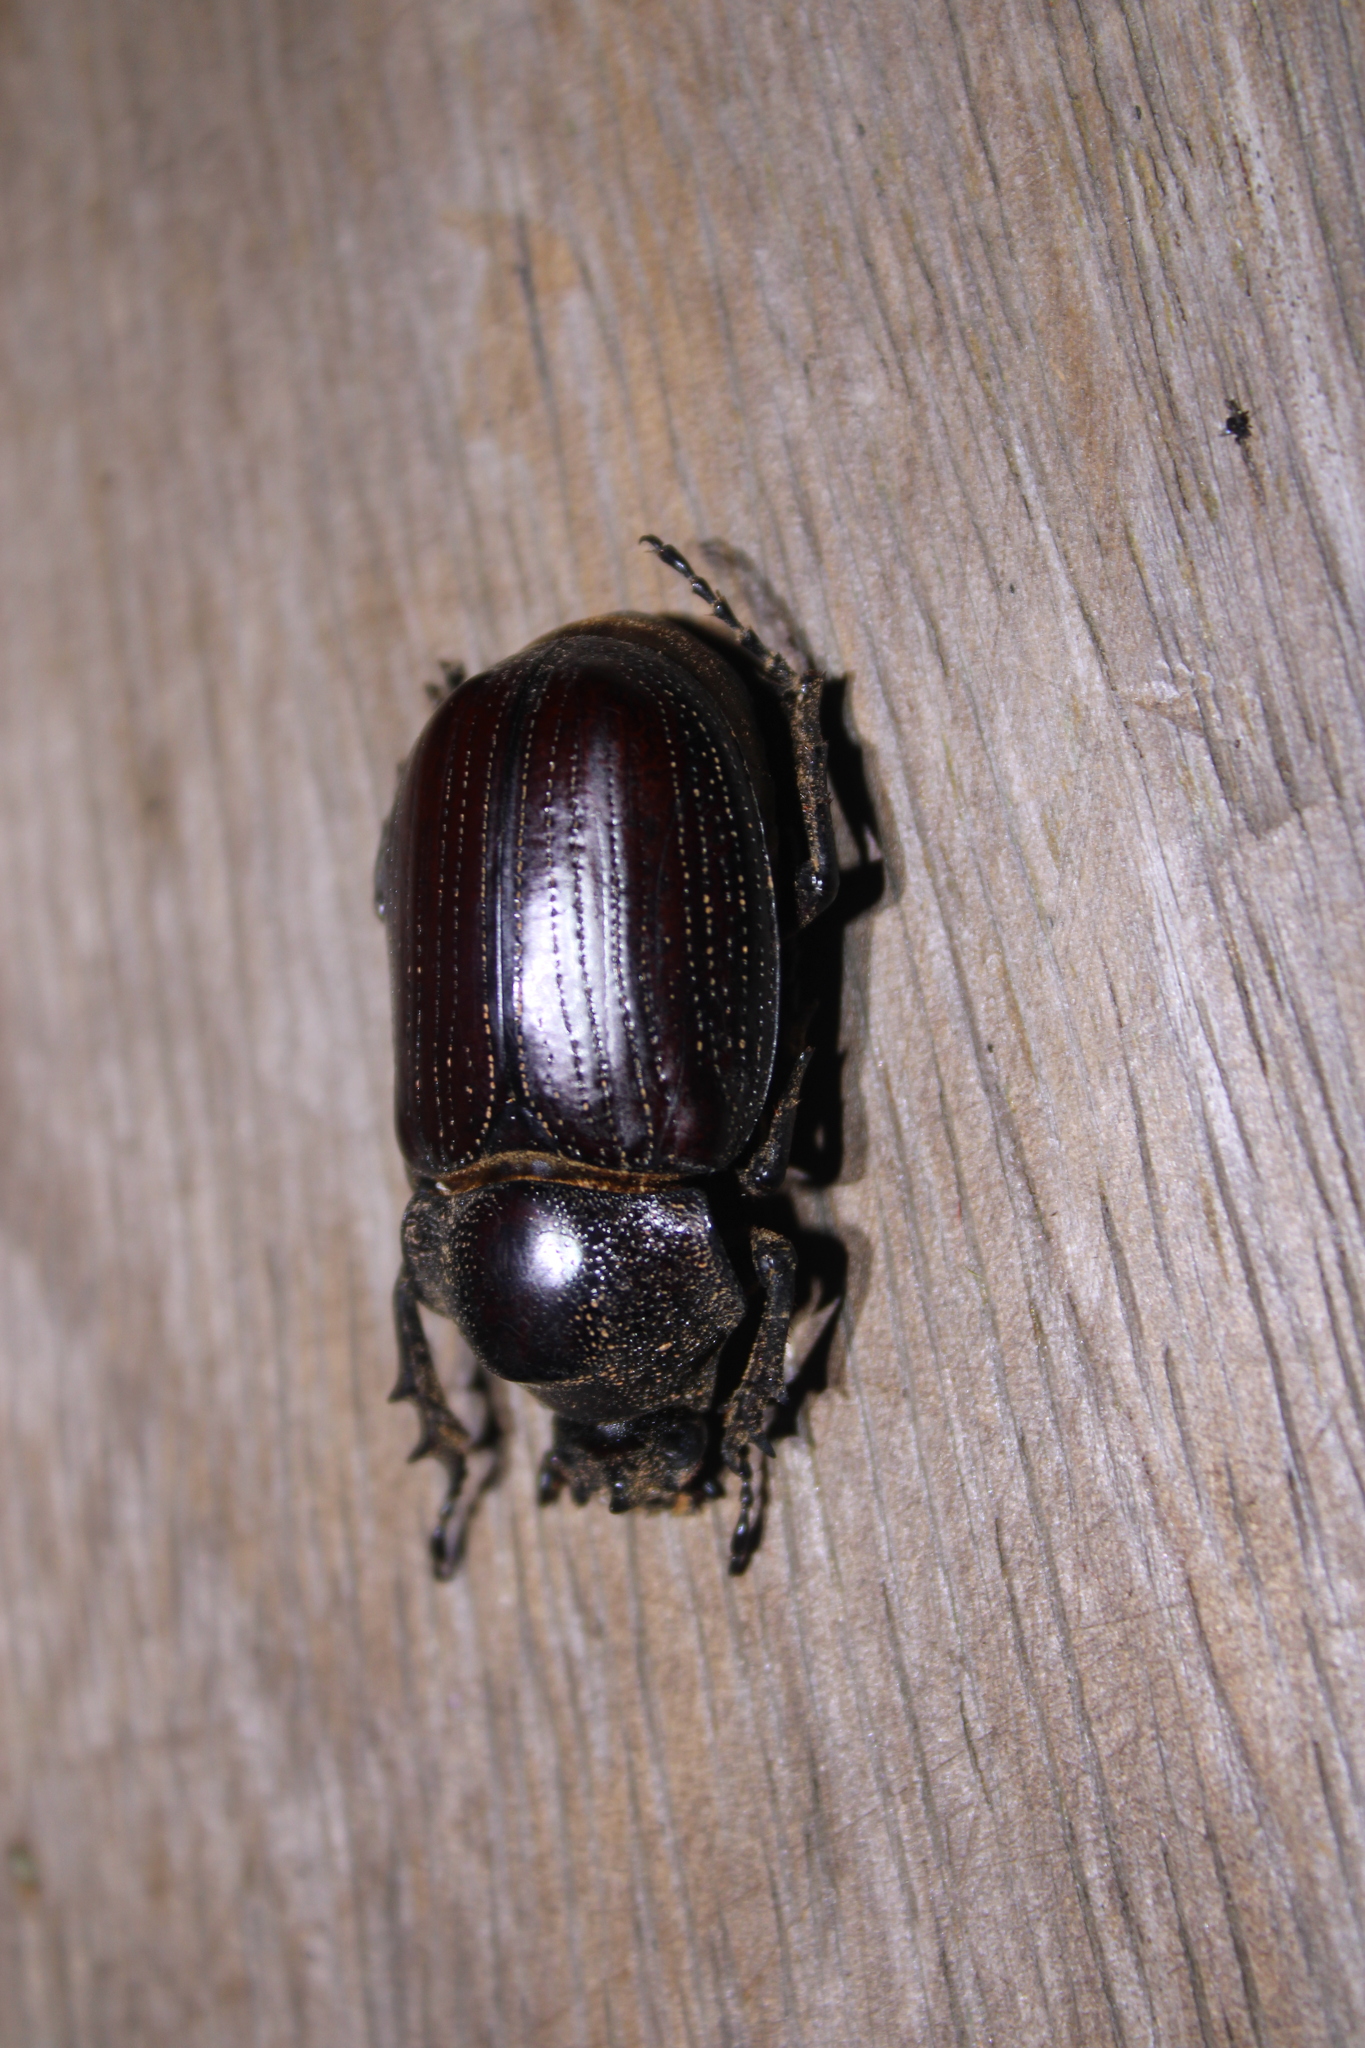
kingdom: Animalia
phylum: Arthropoda
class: Insecta
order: Coleoptera
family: Scarabaeidae
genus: Coelosis
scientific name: Coelosis biloba
